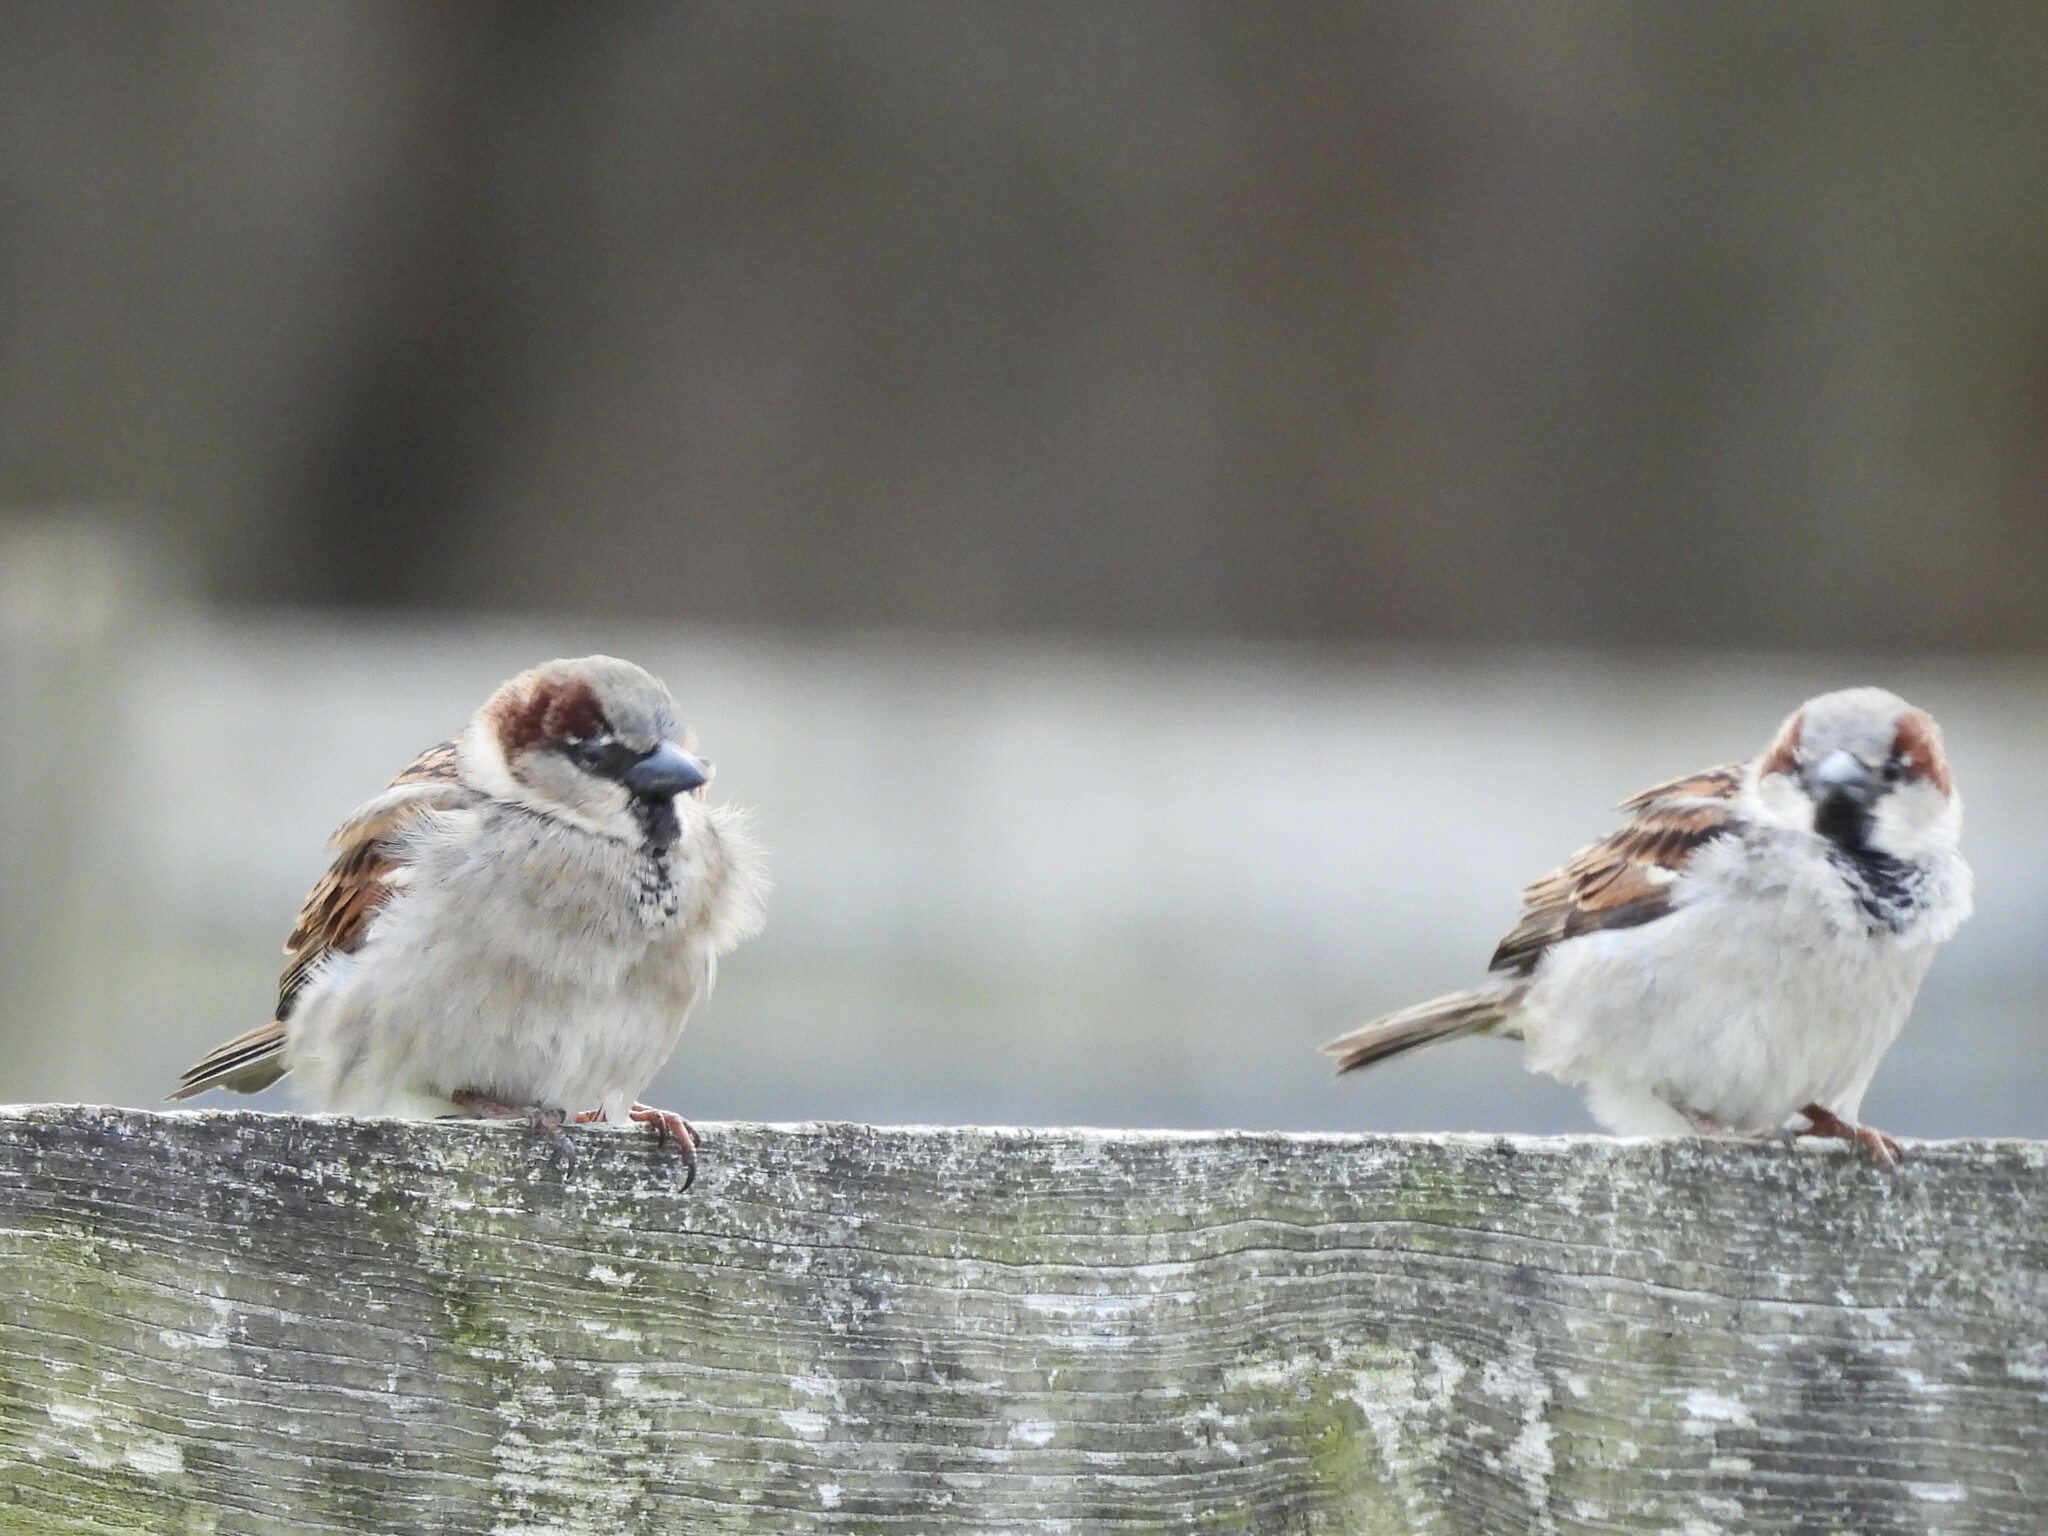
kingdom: Animalia
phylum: Chordata
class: Aves
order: Passeriformes
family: Passeridae
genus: Passer
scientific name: Passer domesticus
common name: House sparrow
